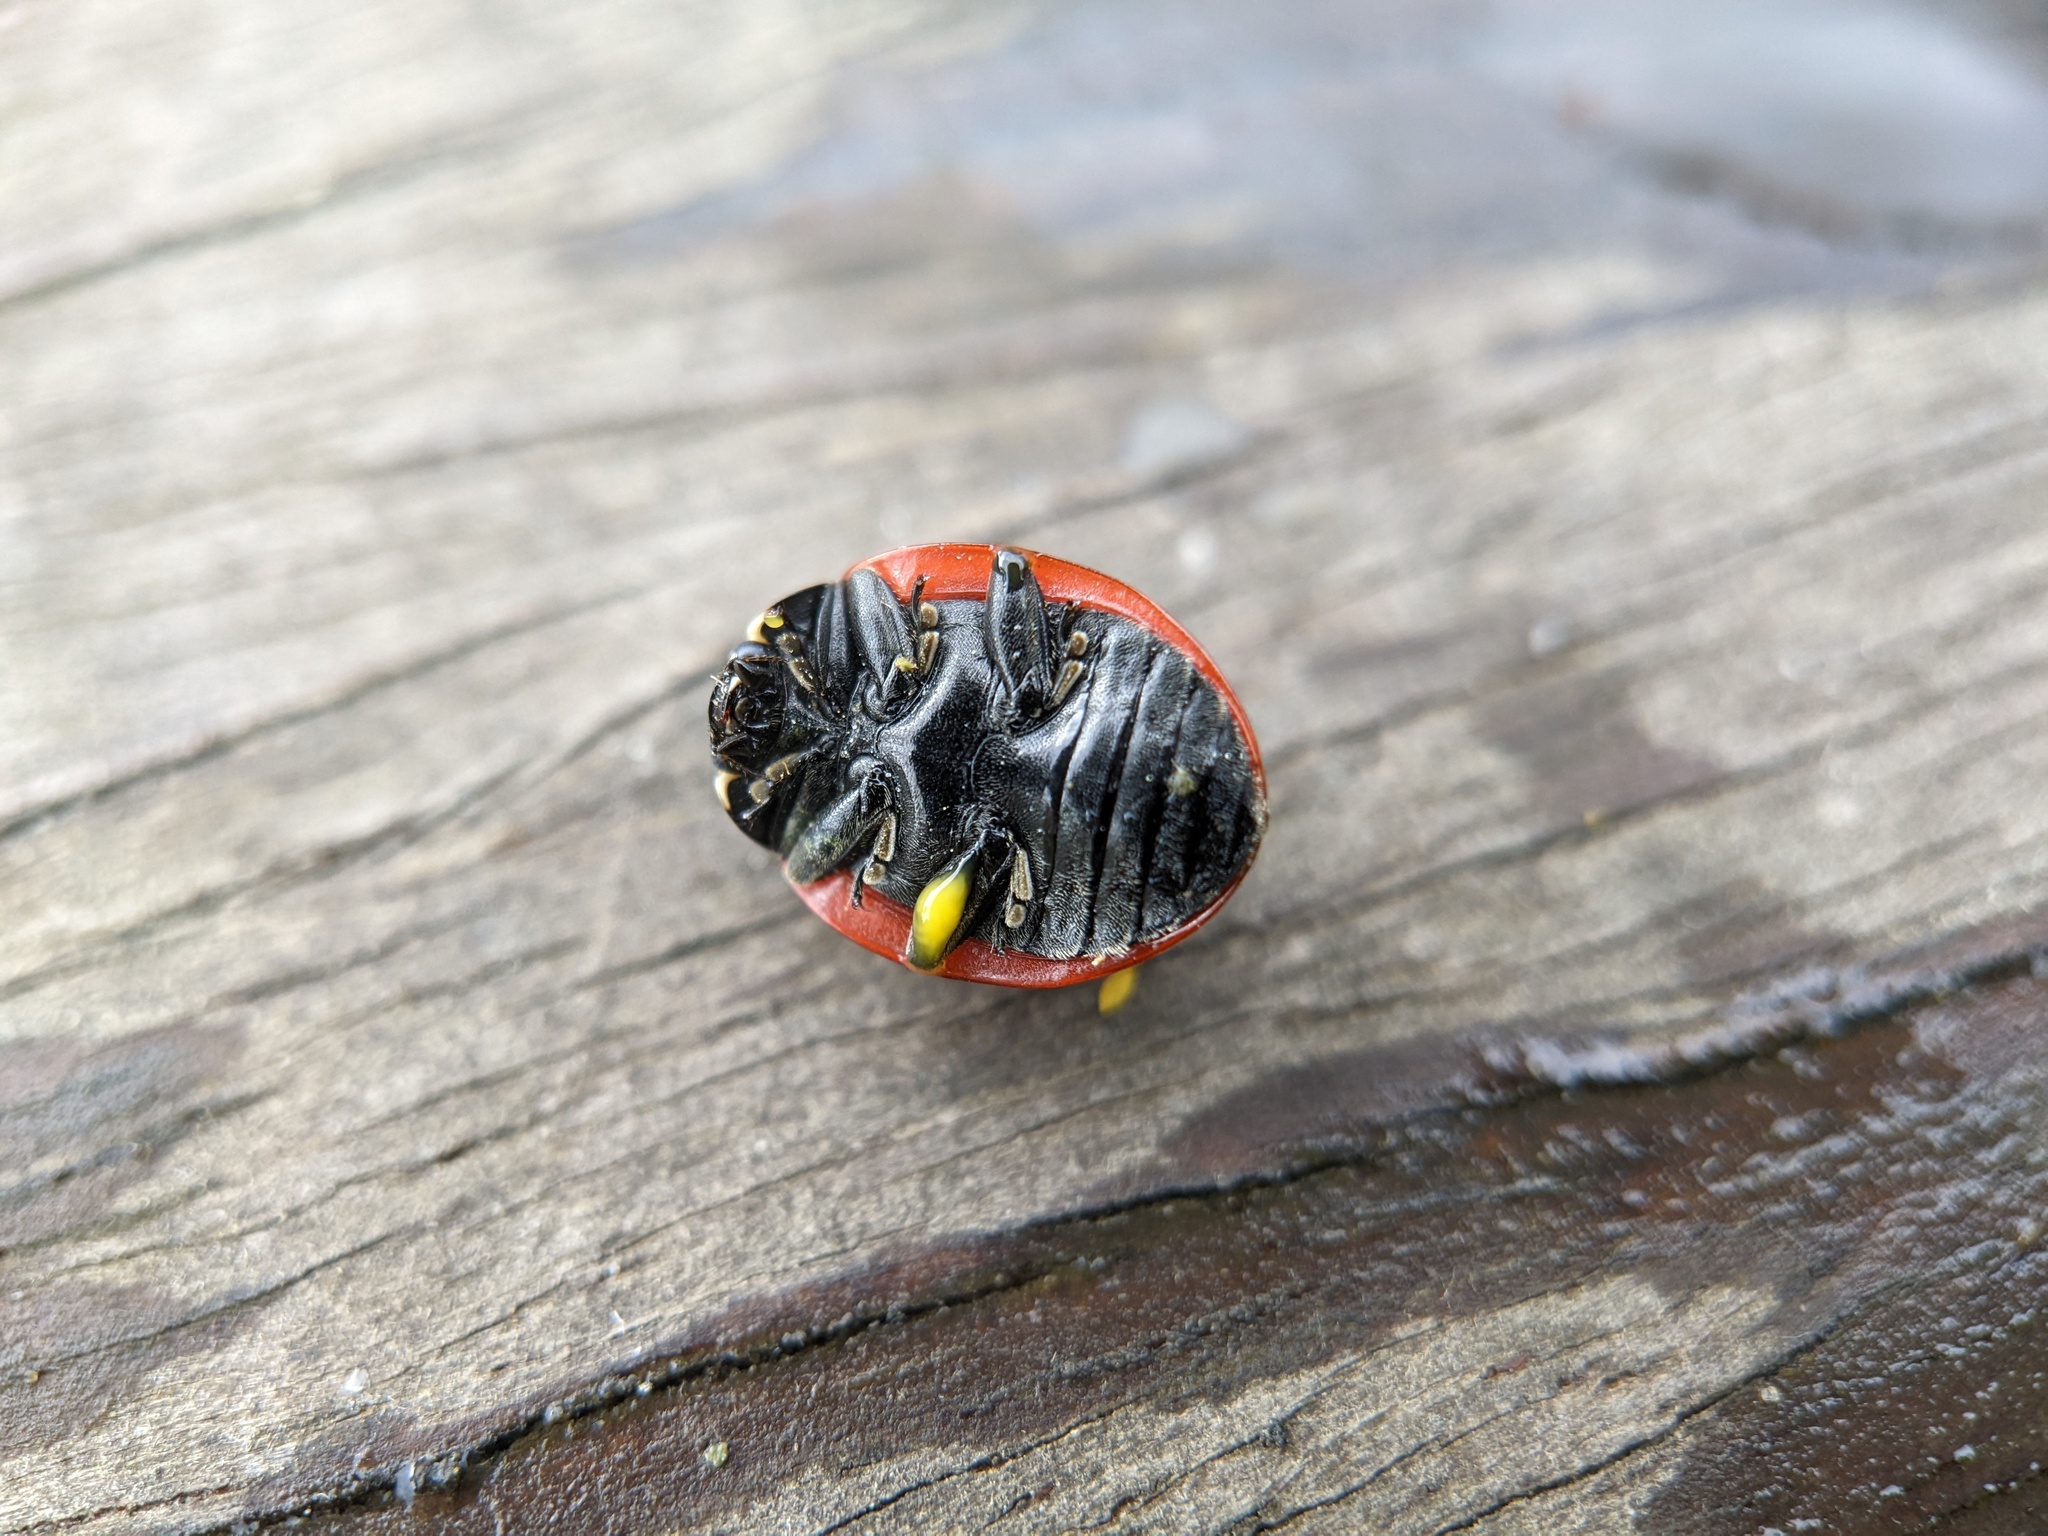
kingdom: Animalia
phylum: Arthropoda
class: Insecta
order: Coleoptera
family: Coccinellidae
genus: Coccinella
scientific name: Coccinella septempunctata
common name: Sevenspotted lady beetle
